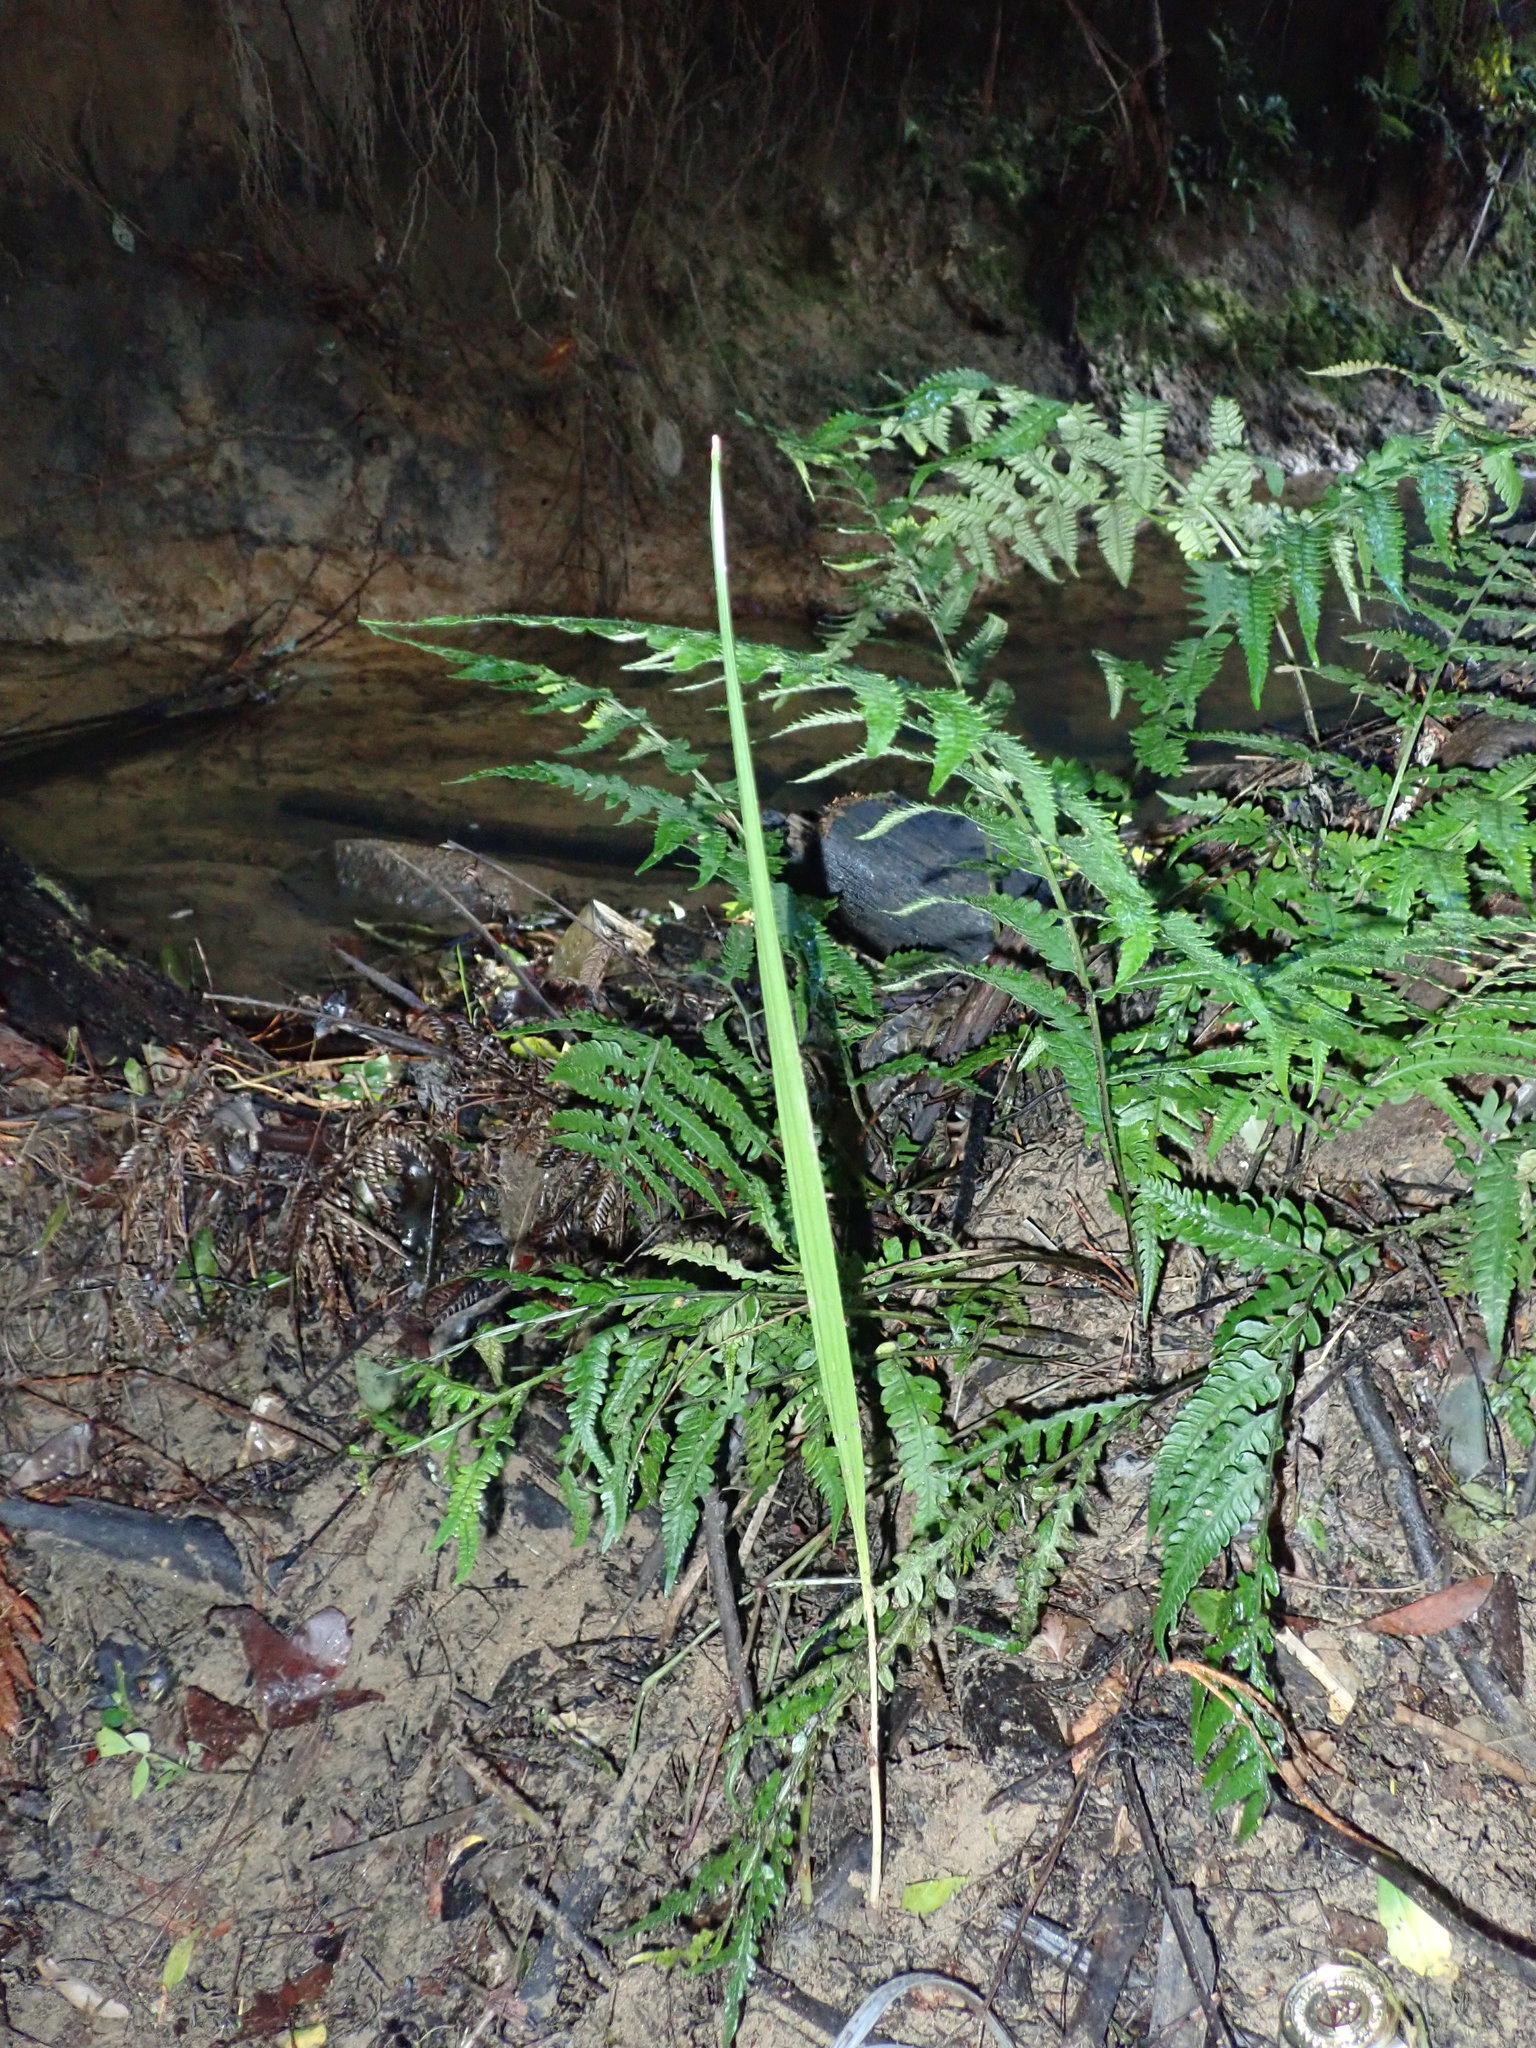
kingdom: Plantae
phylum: Tracheophyta
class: Liliopsida
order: Arecales
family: Arecaceae
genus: Phoenix
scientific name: Phoenix canariensis
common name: Canary island date palm
